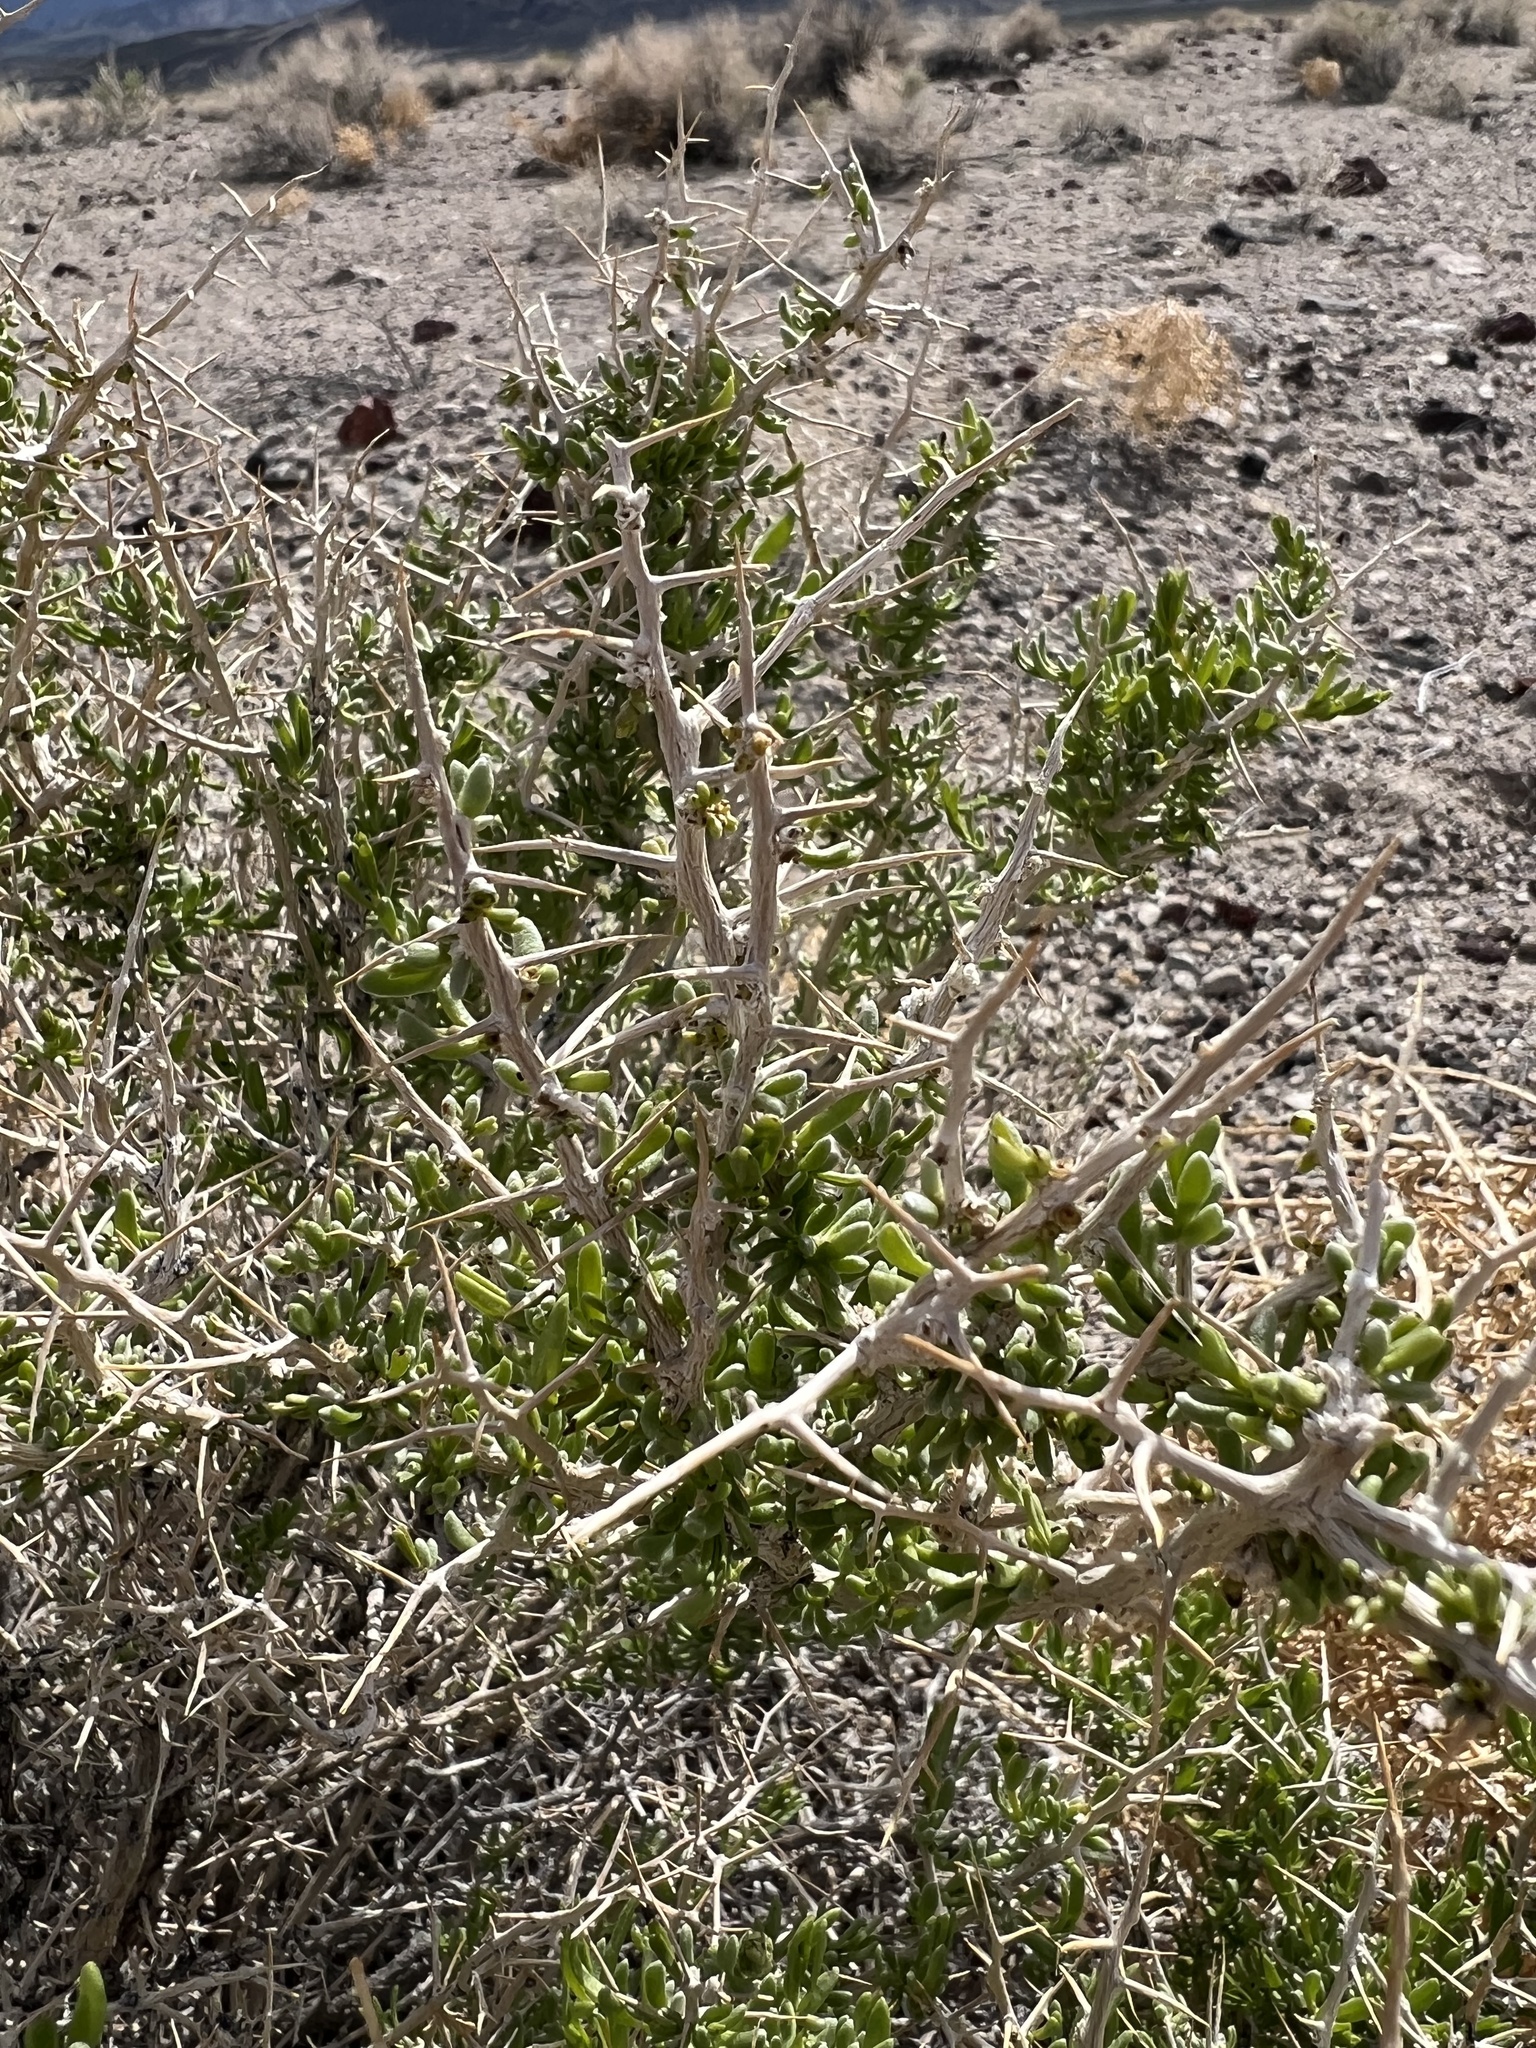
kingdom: Plantae
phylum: Tracheophyta
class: Magnoliopsida
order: Caryophyllales
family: Sarcobataceae
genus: Sarcobatus
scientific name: Sarcobatus baileyi
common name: Bailey greasewood
